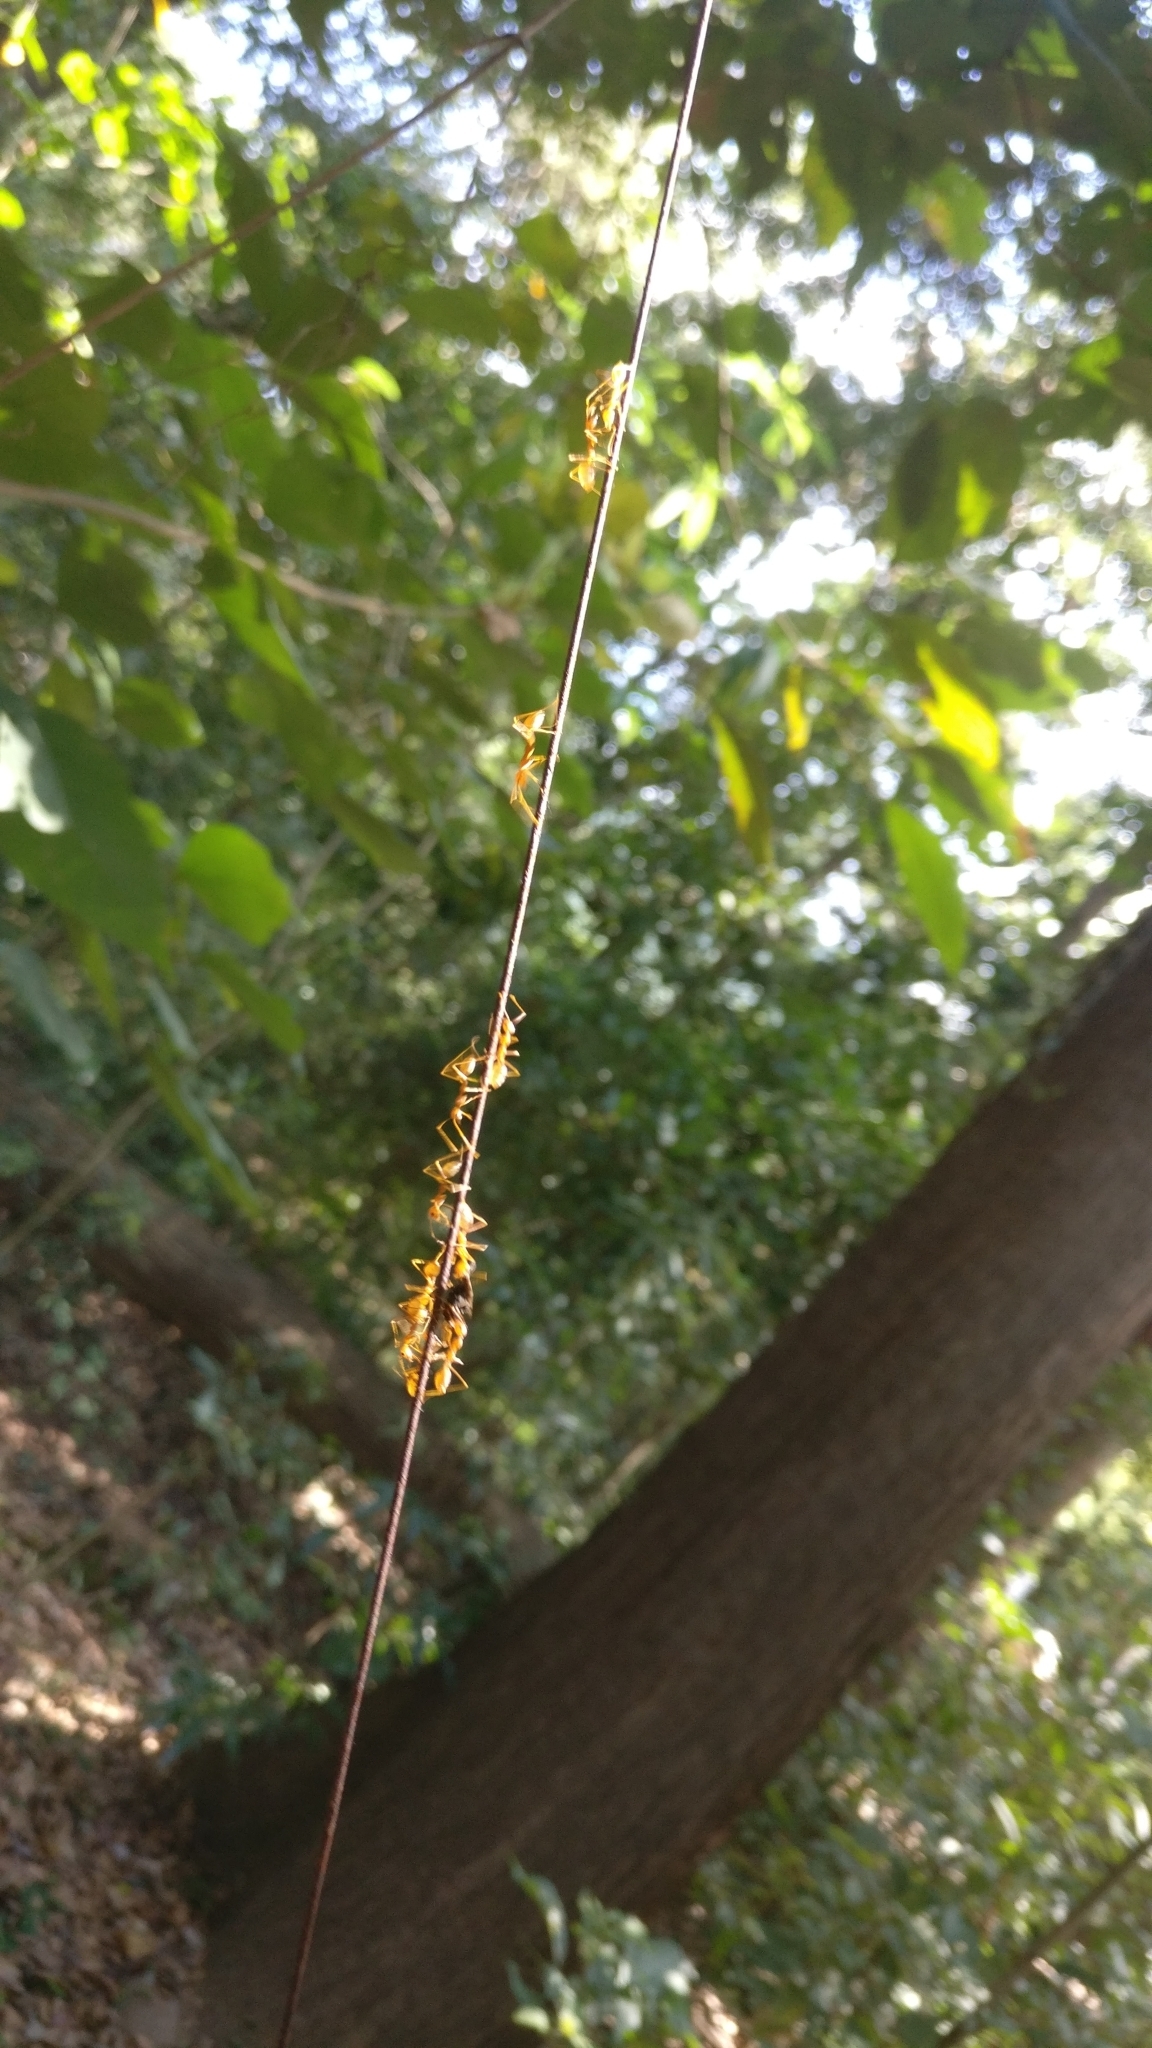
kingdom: Animalia
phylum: Arthropoda
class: Insecta
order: Hymenoptera
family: Formicidae
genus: Oecophylla
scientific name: Oecophylla smaragdina
